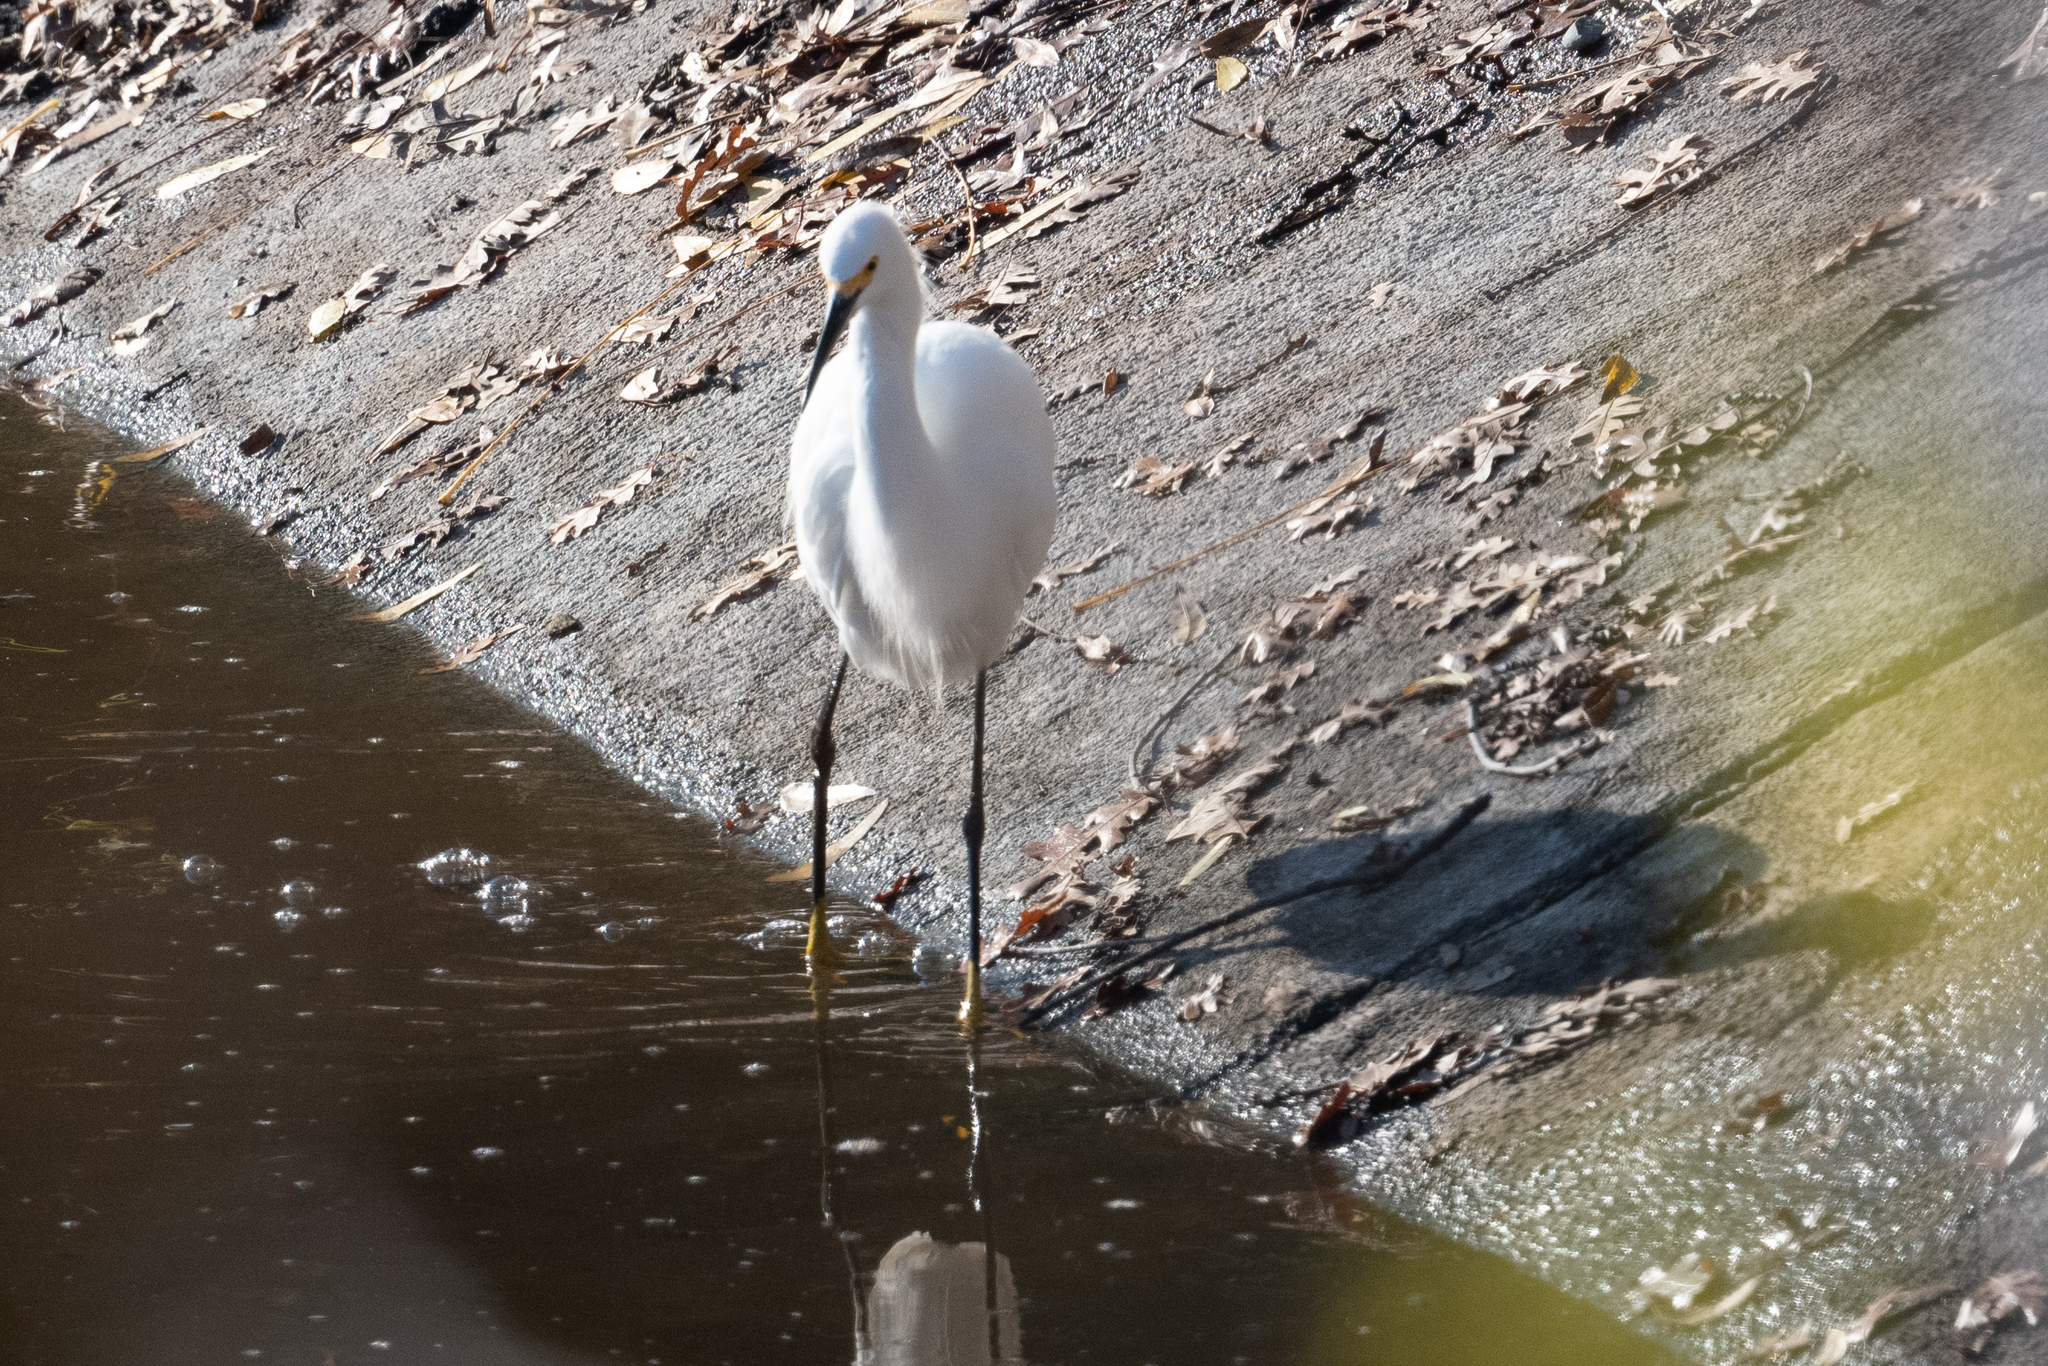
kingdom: Animalia
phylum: Chordata
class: Aves
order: Pelecaniformes
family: Ardeidae
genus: Egretta
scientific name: Egretta thula
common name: Snowy egret
